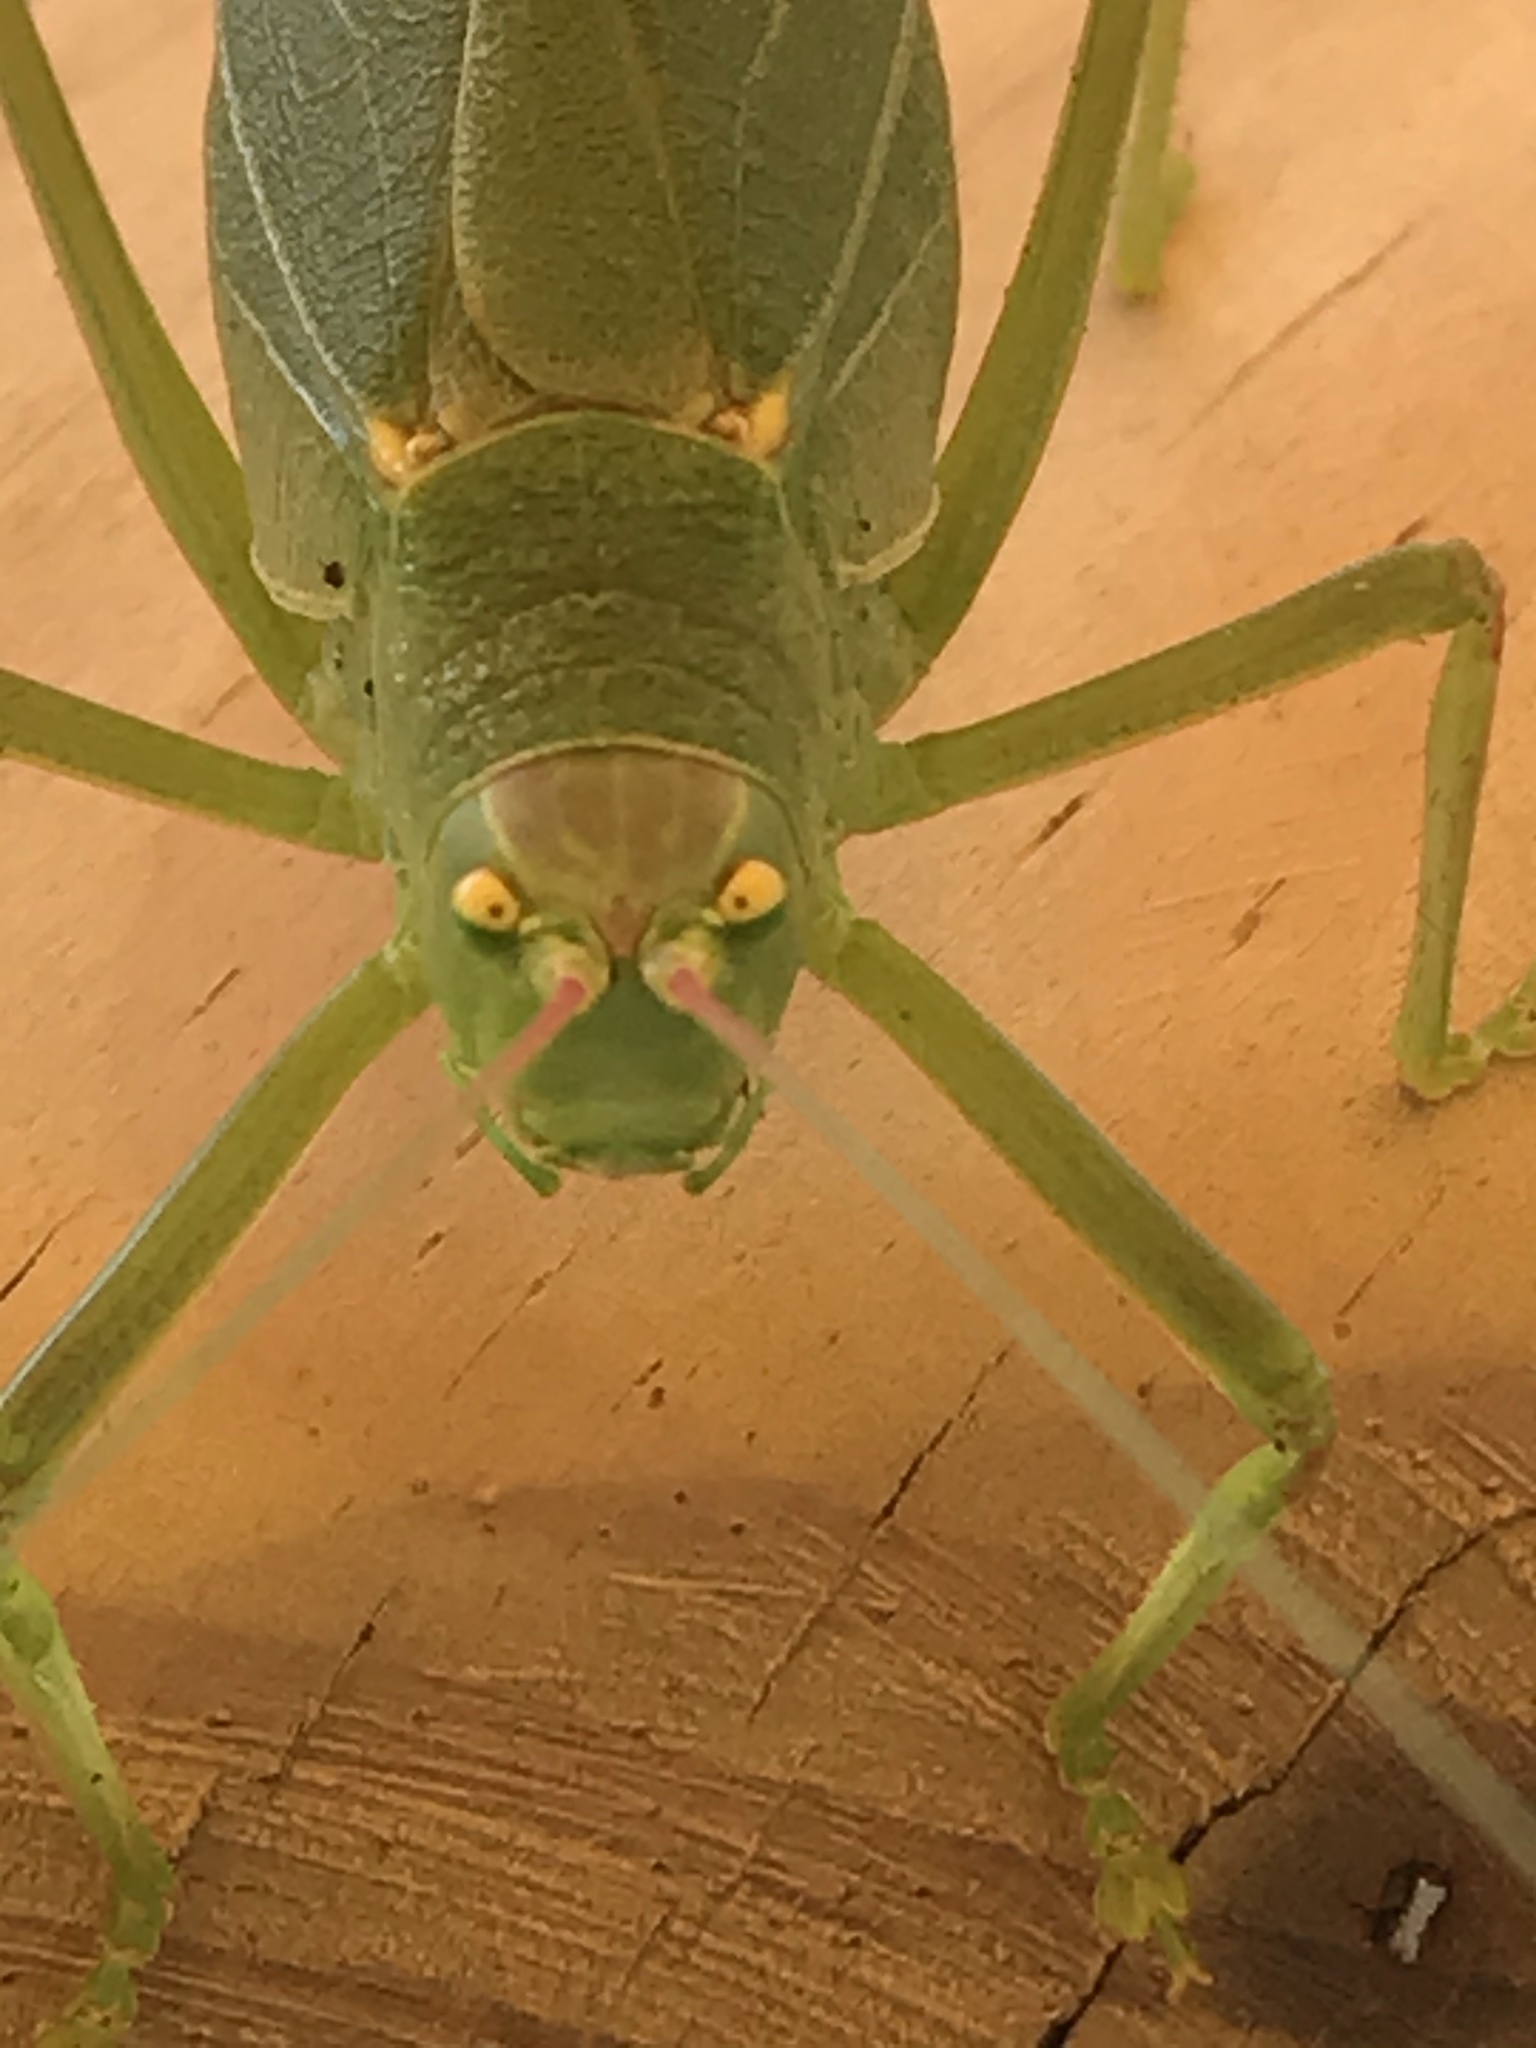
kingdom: Animalia
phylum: Arthropoda
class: Insecta
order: Orthoptera
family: Tettigoniidae
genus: Pterophylla
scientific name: Pterophylla camellifolia
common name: Common true katydid
